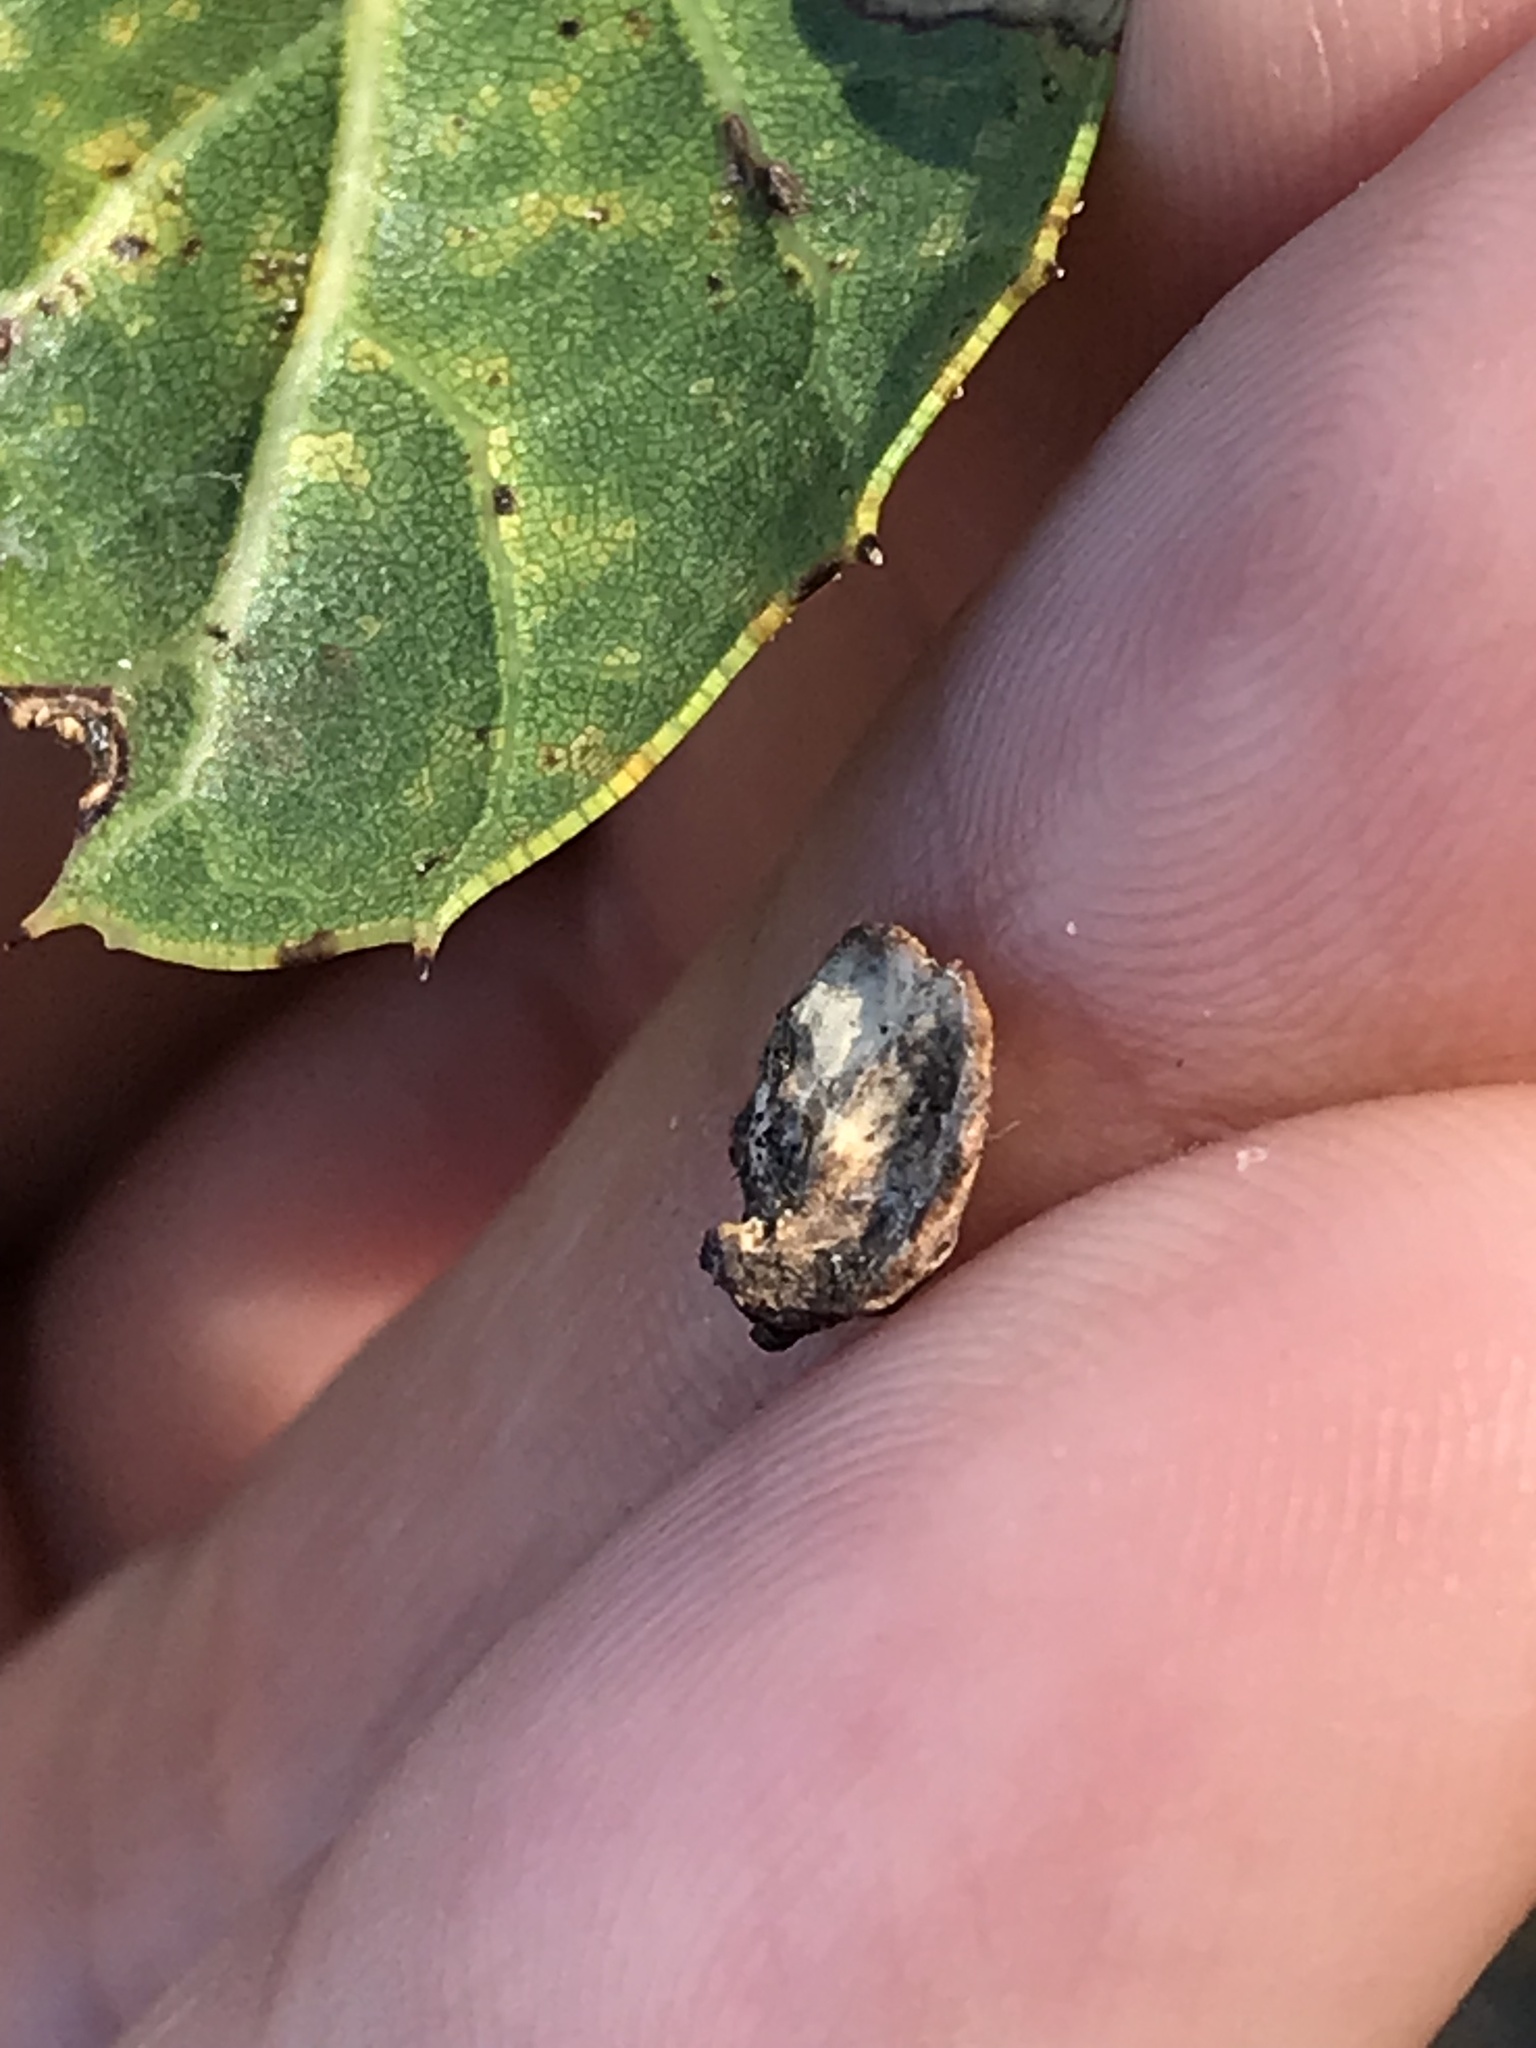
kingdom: Animalia
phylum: Arthropoda
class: Insecta
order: Hymenoptera
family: Cynipidae
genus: Amphibolips
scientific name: Amphibolips quercuspomiformis
